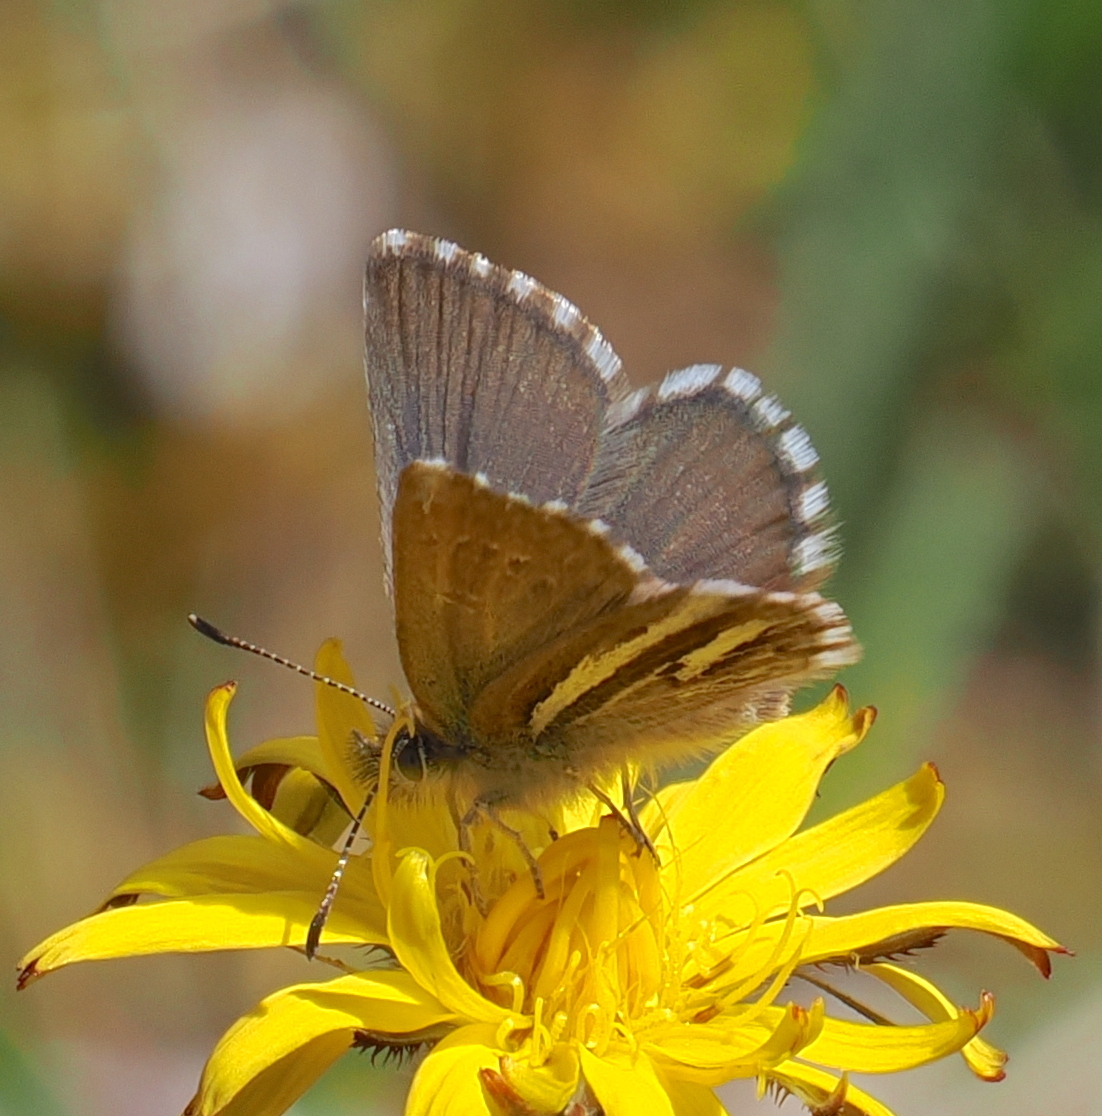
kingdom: Animalia
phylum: Arthropoda
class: Insecta
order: Lepidoptera
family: Lycaenidae
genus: Itylos
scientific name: Itylos
